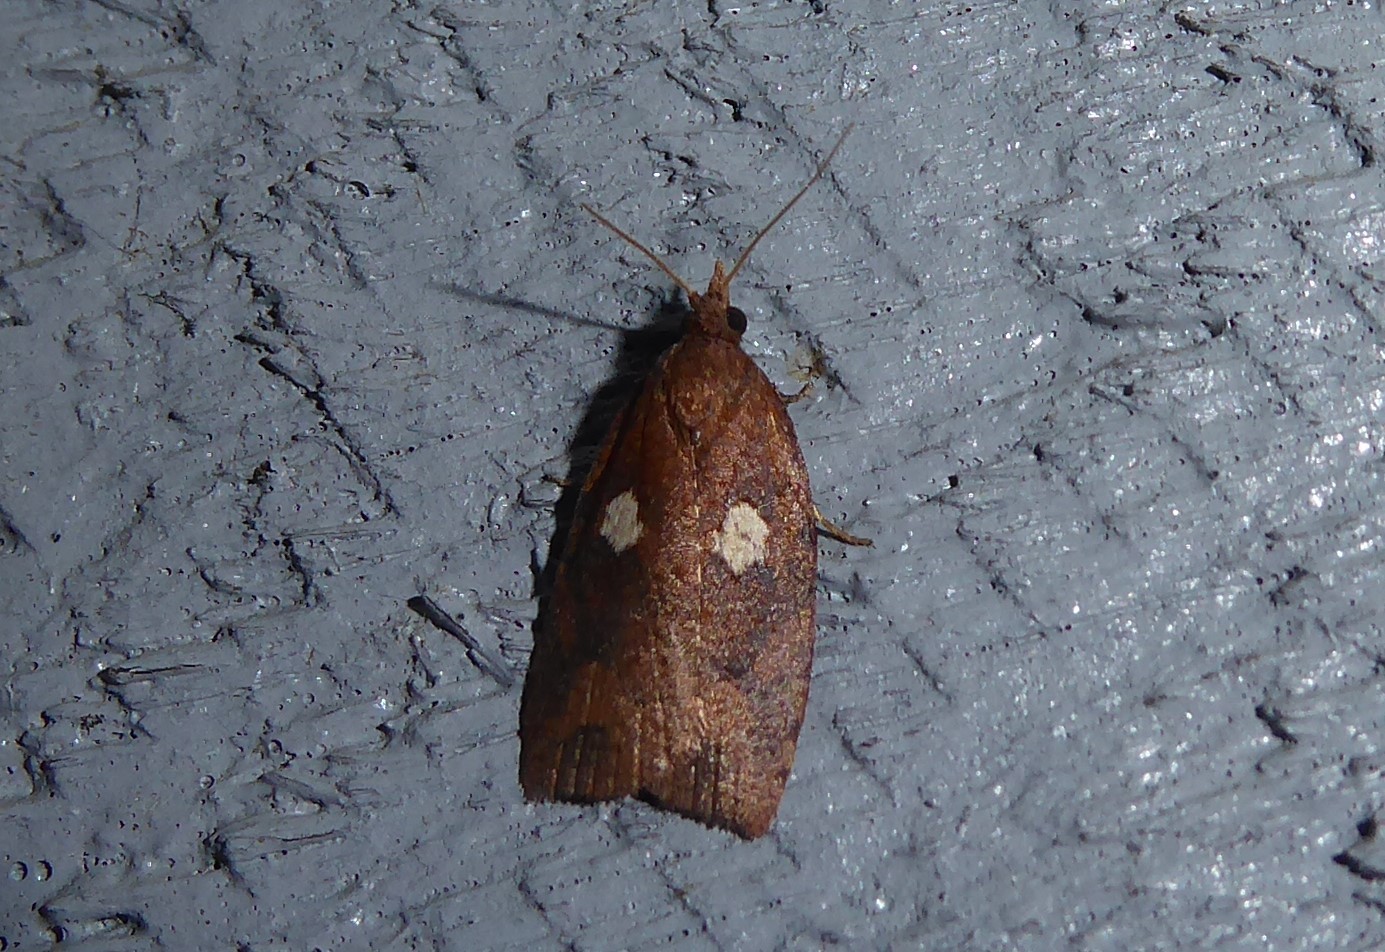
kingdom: Animalia
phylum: Arthropoda
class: Insecta
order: Lepidoptera
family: Tortricidae
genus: Planotortrix
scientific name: Planotortrix excessana
